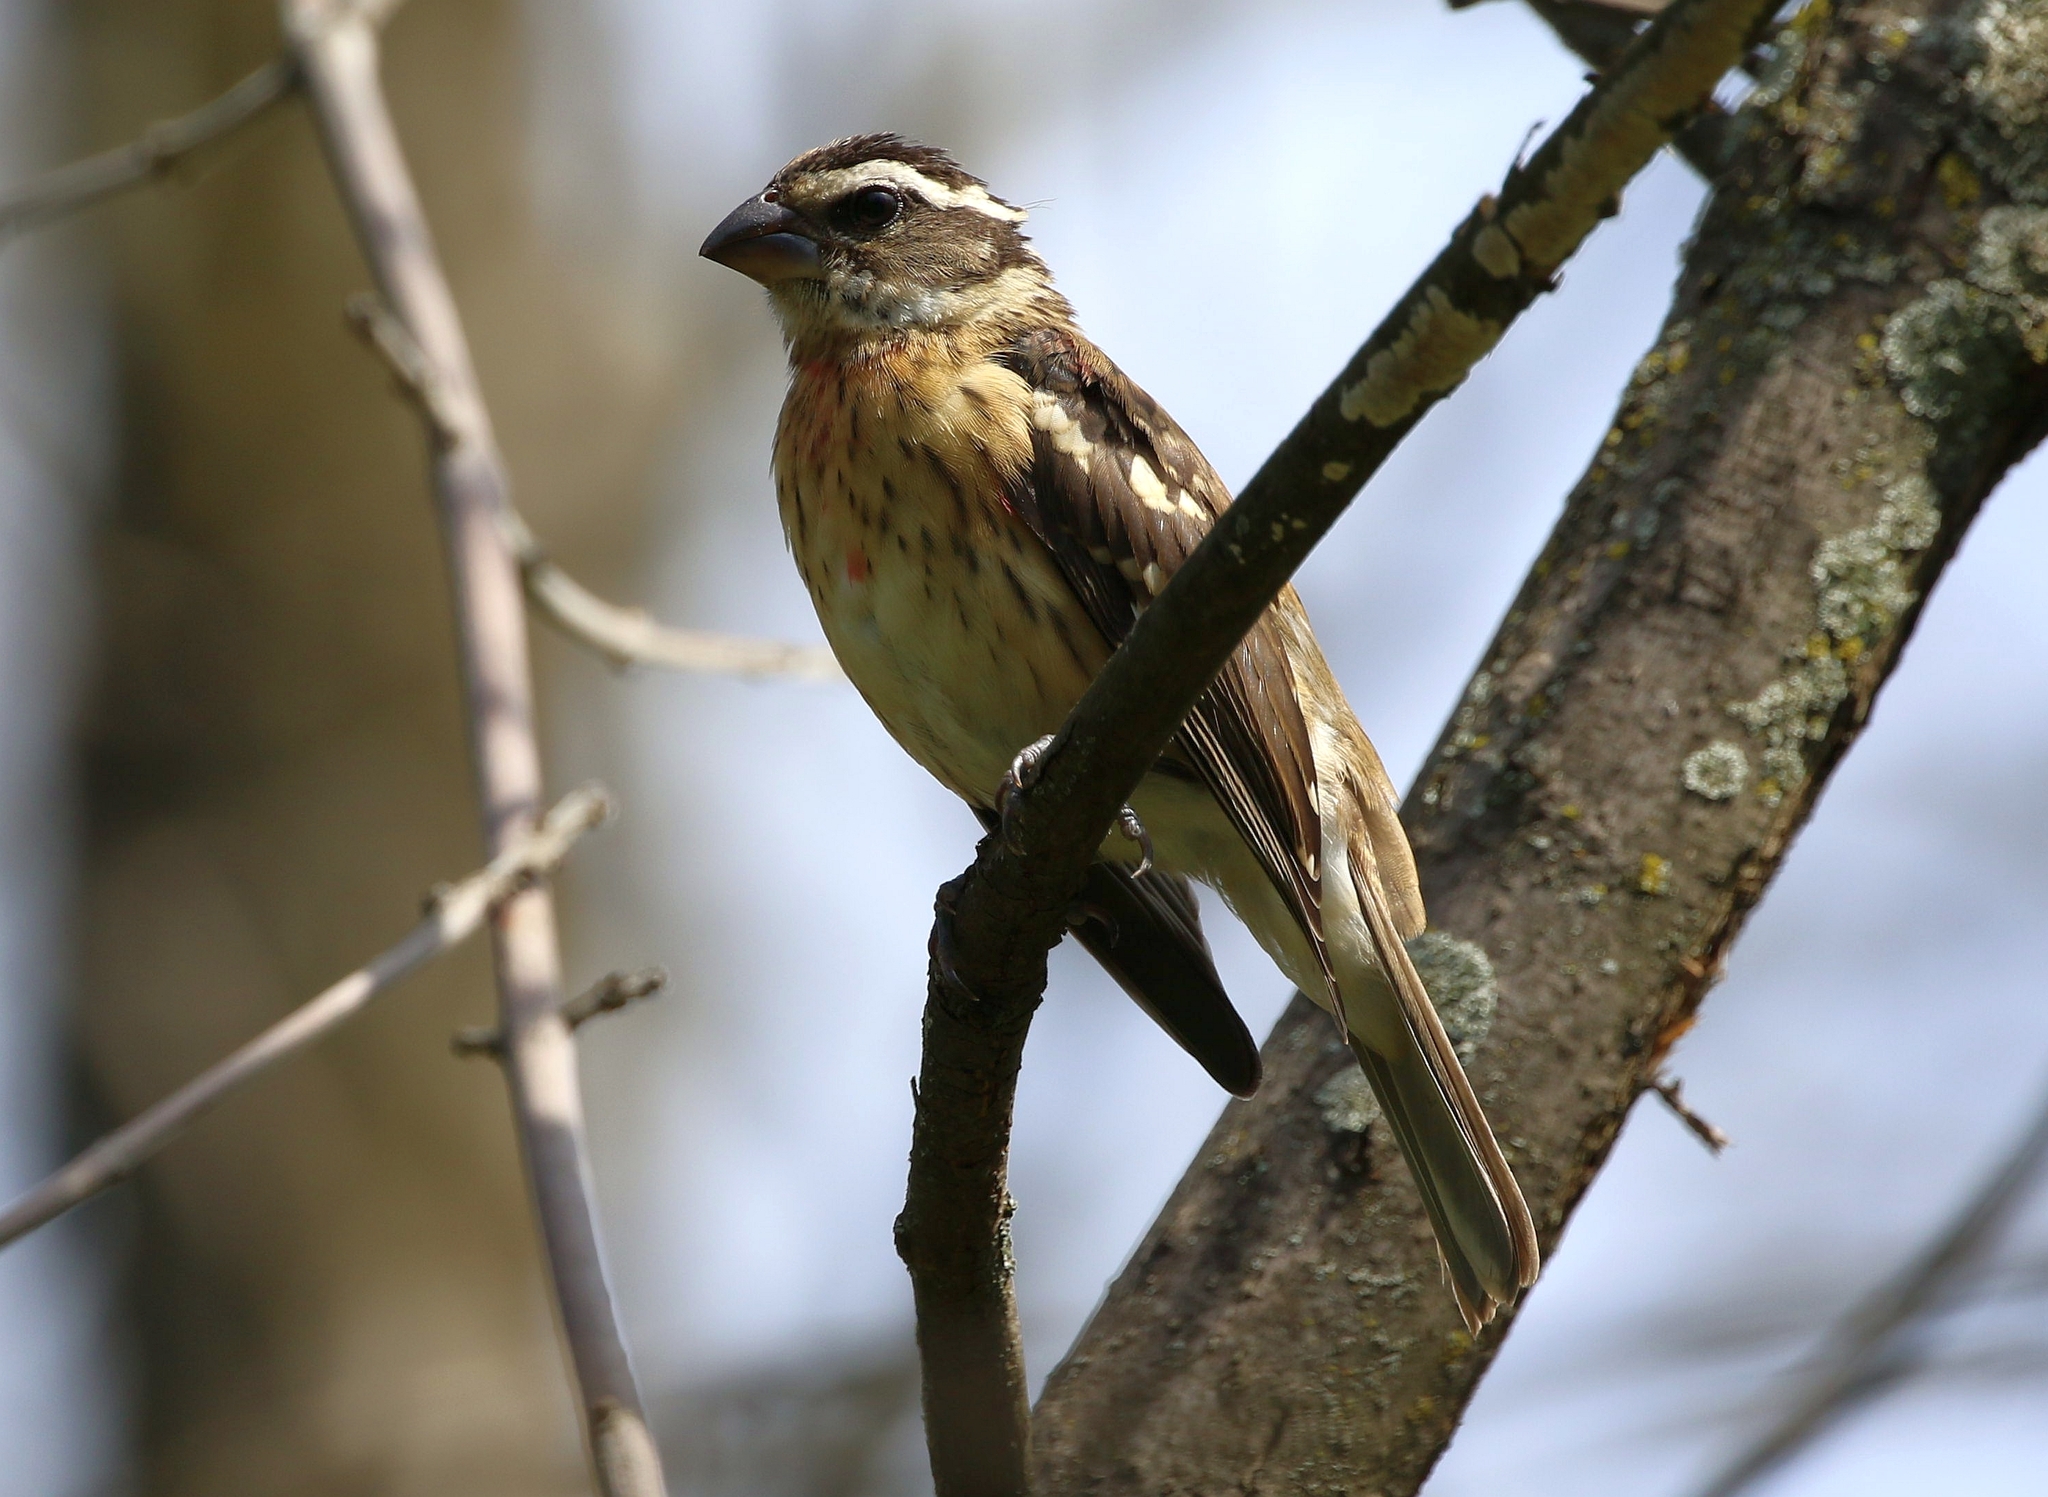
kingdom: Animalia
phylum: Chordata
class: Aves
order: Passeriformes
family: Cardinalidae
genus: Pheucticus
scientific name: Pheucticus ludovicianus
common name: Rose-breasted grosbeak
